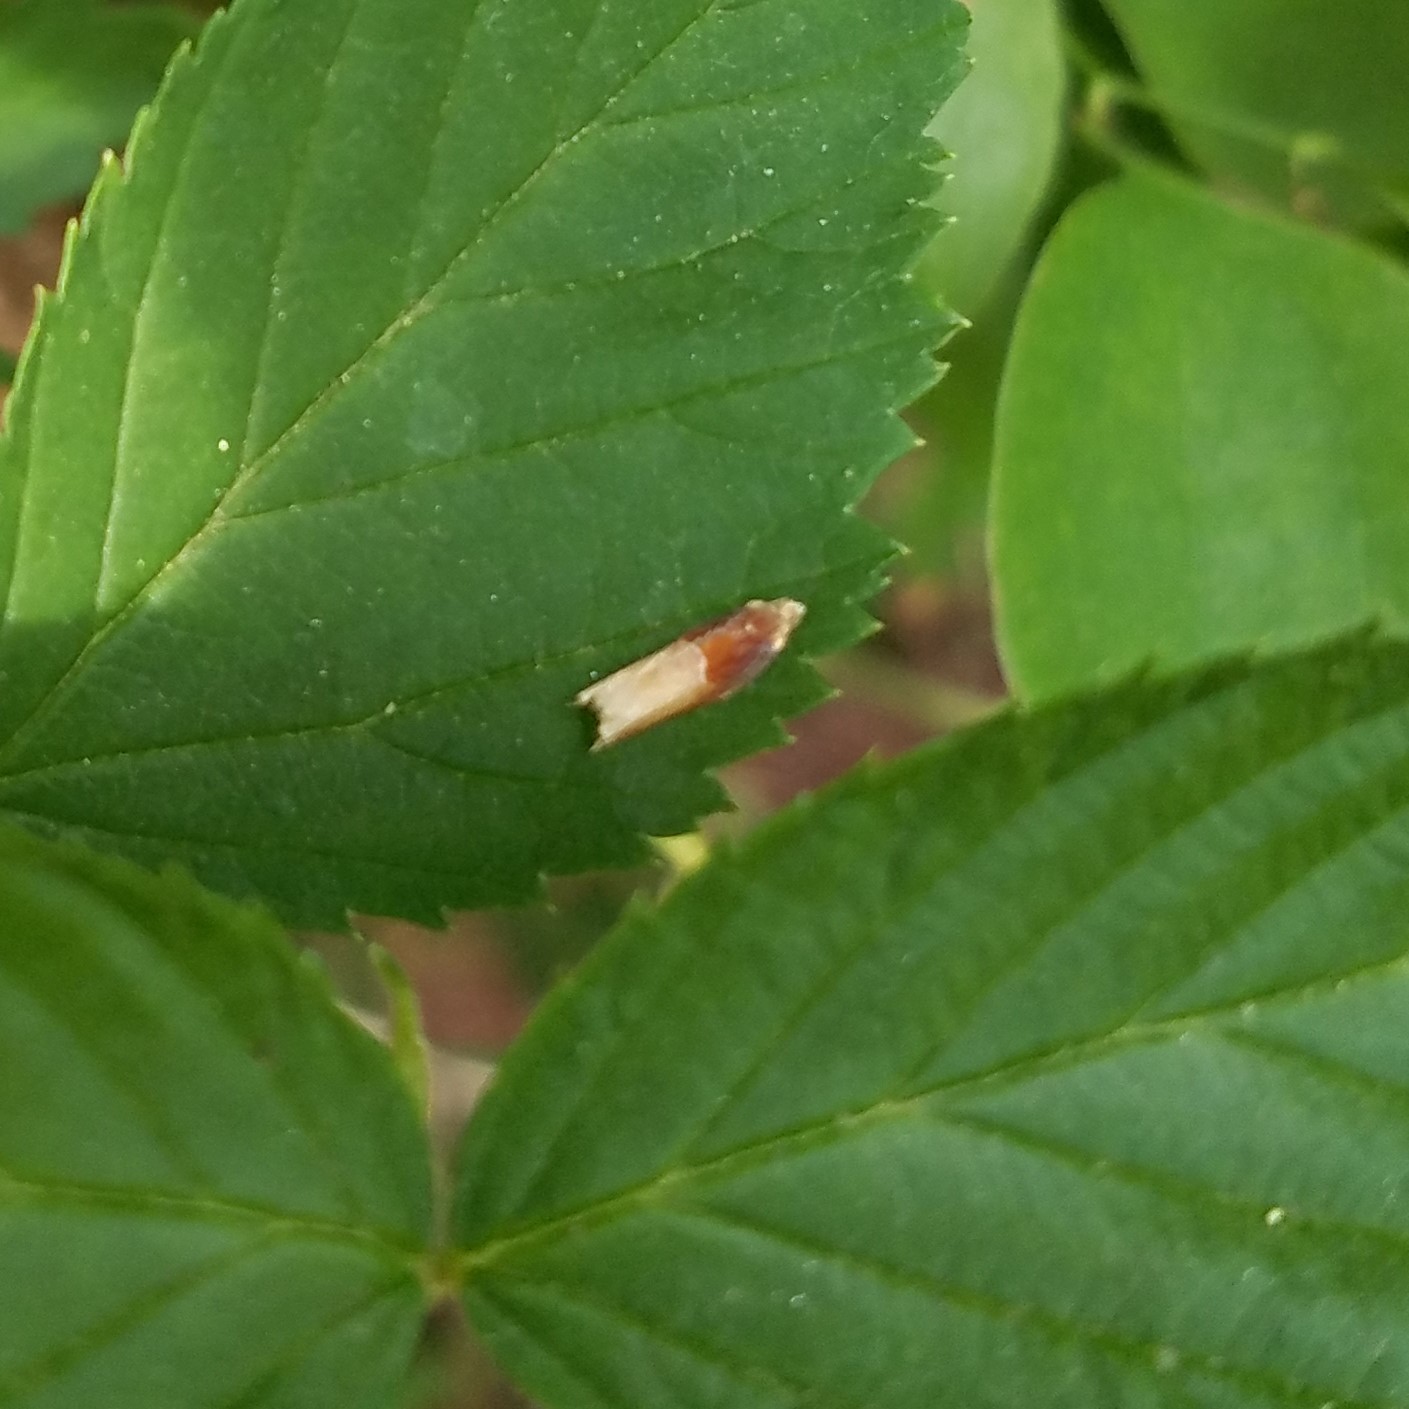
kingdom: Animalia
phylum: Arthropoda
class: Insecta
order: Lepidoptera
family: Tortricidae
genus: Ancylis
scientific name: Ancylis divisana
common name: Two-toned ancylis moth
